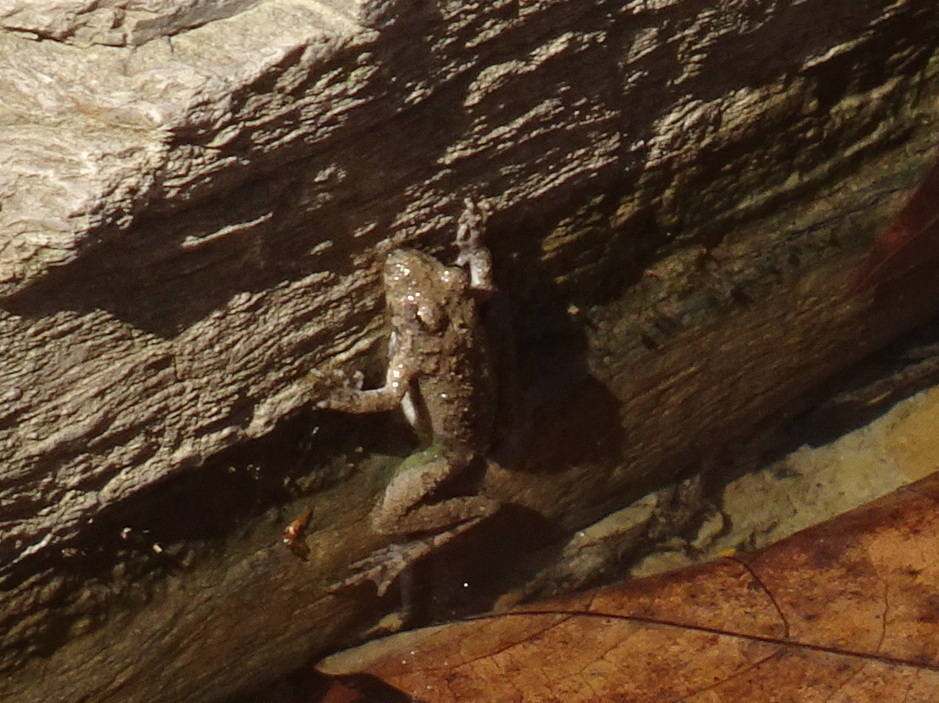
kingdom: Animalia
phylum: Chordata
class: Amphibia
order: Anura
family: Hylidae
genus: Acris
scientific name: Acris blanchardi
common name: Blanchard's cricket frog
